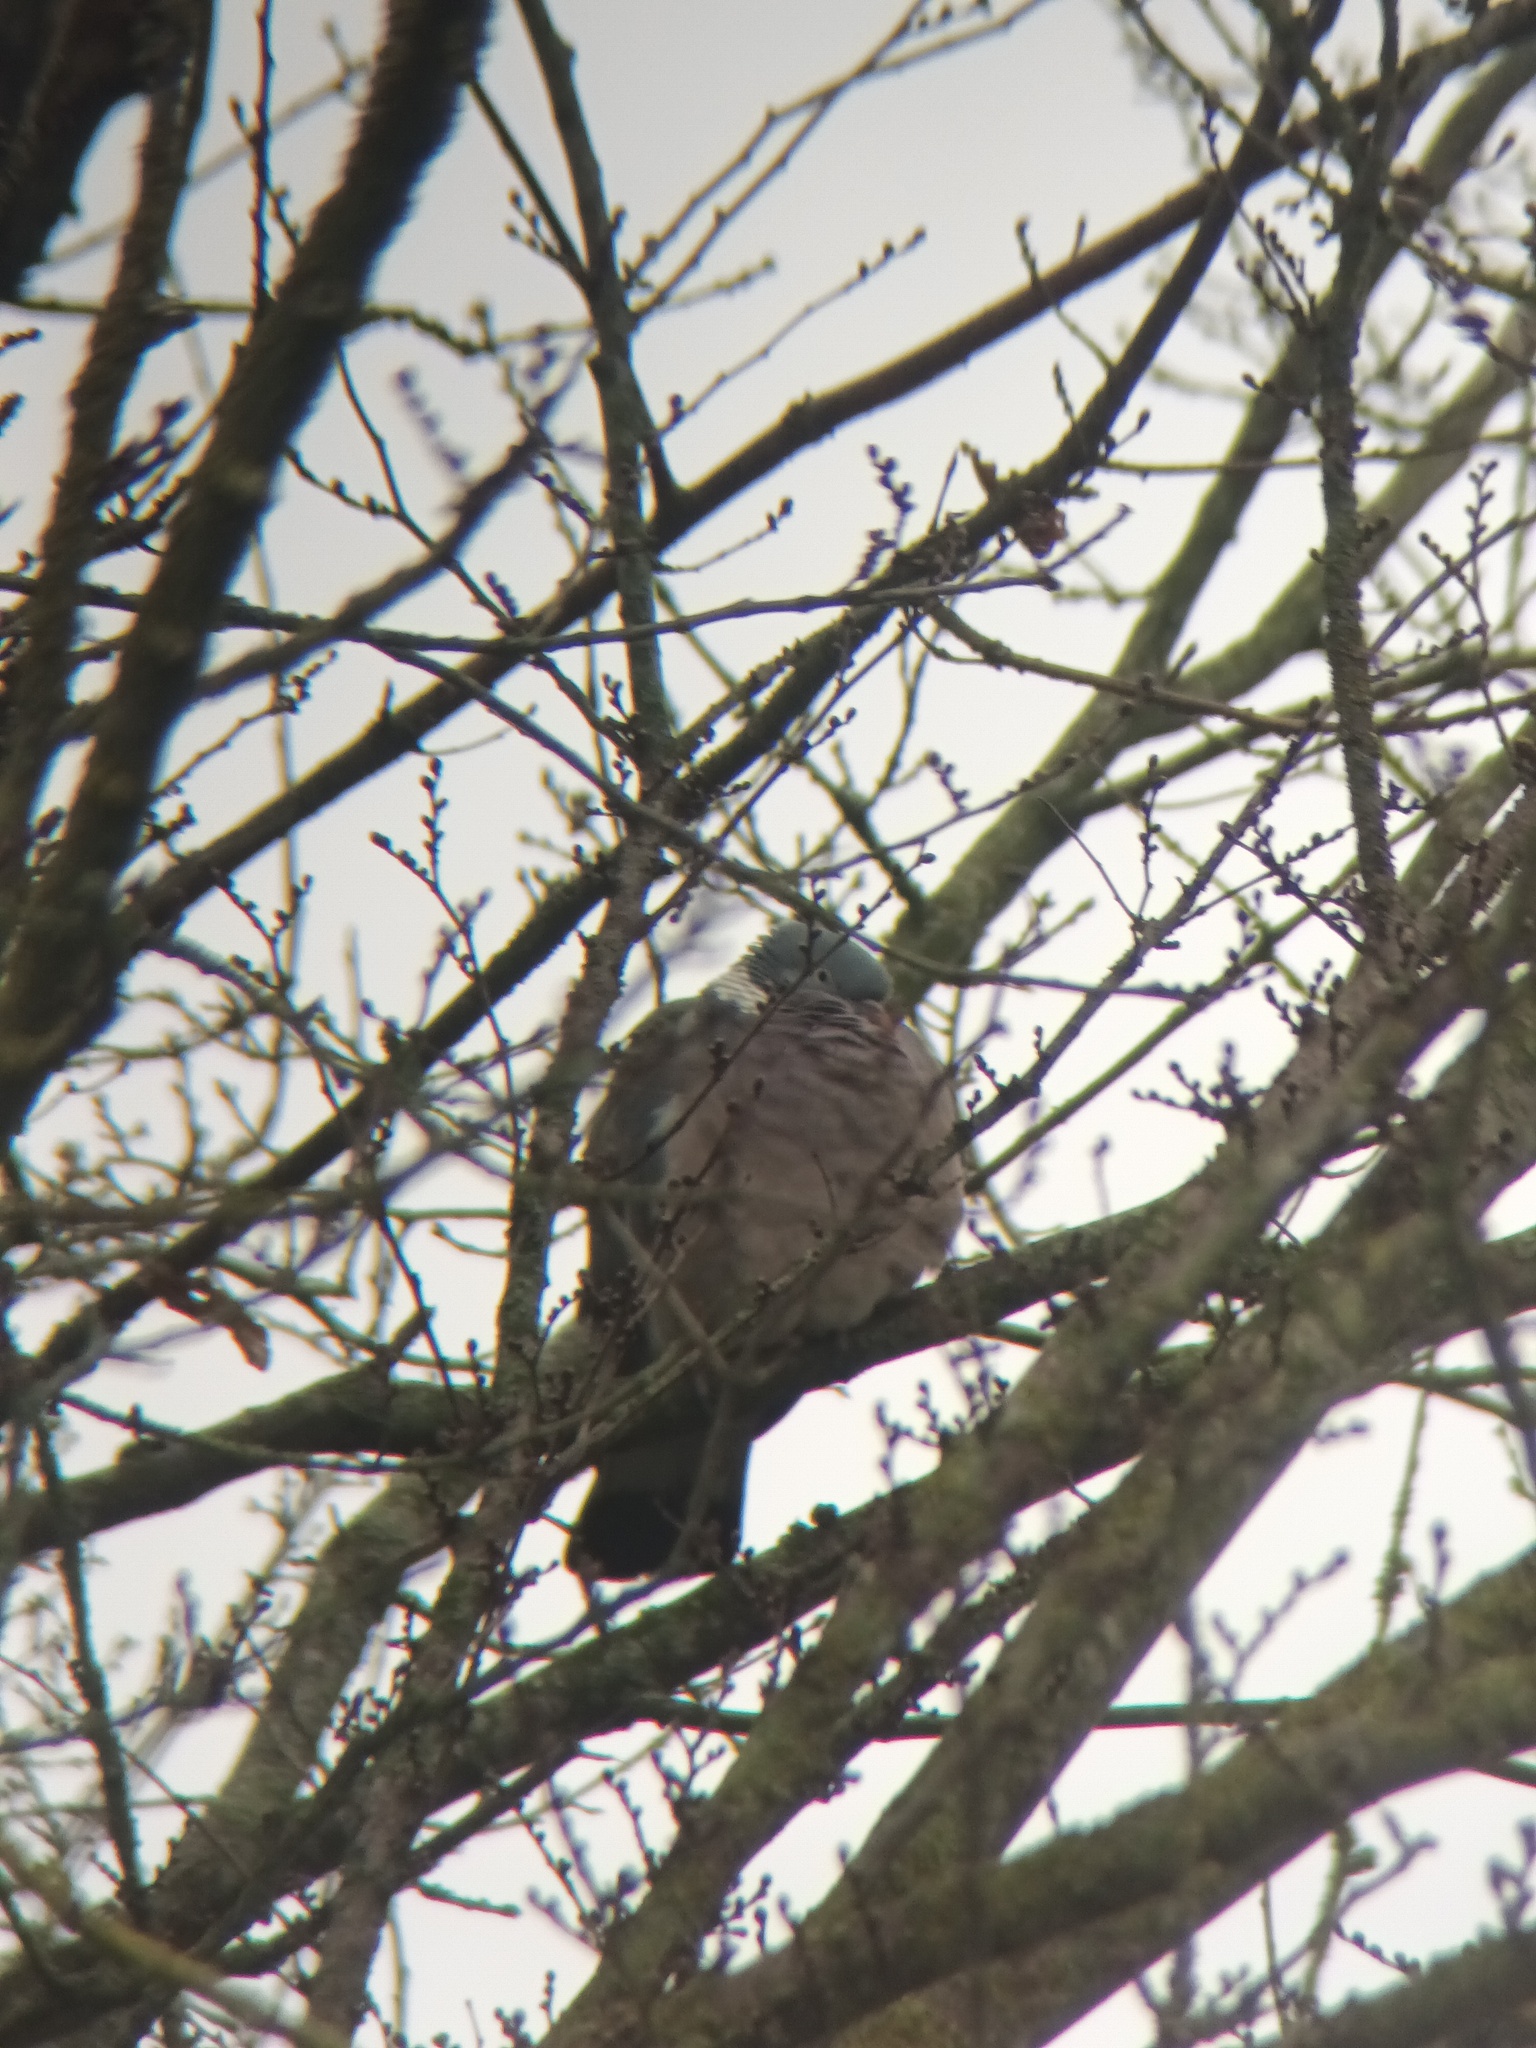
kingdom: Animalia
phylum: Chordata
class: Aves
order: Columbiformes
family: Columbidae
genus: Columba
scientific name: Columba palumbus
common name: Common wood pigeon
